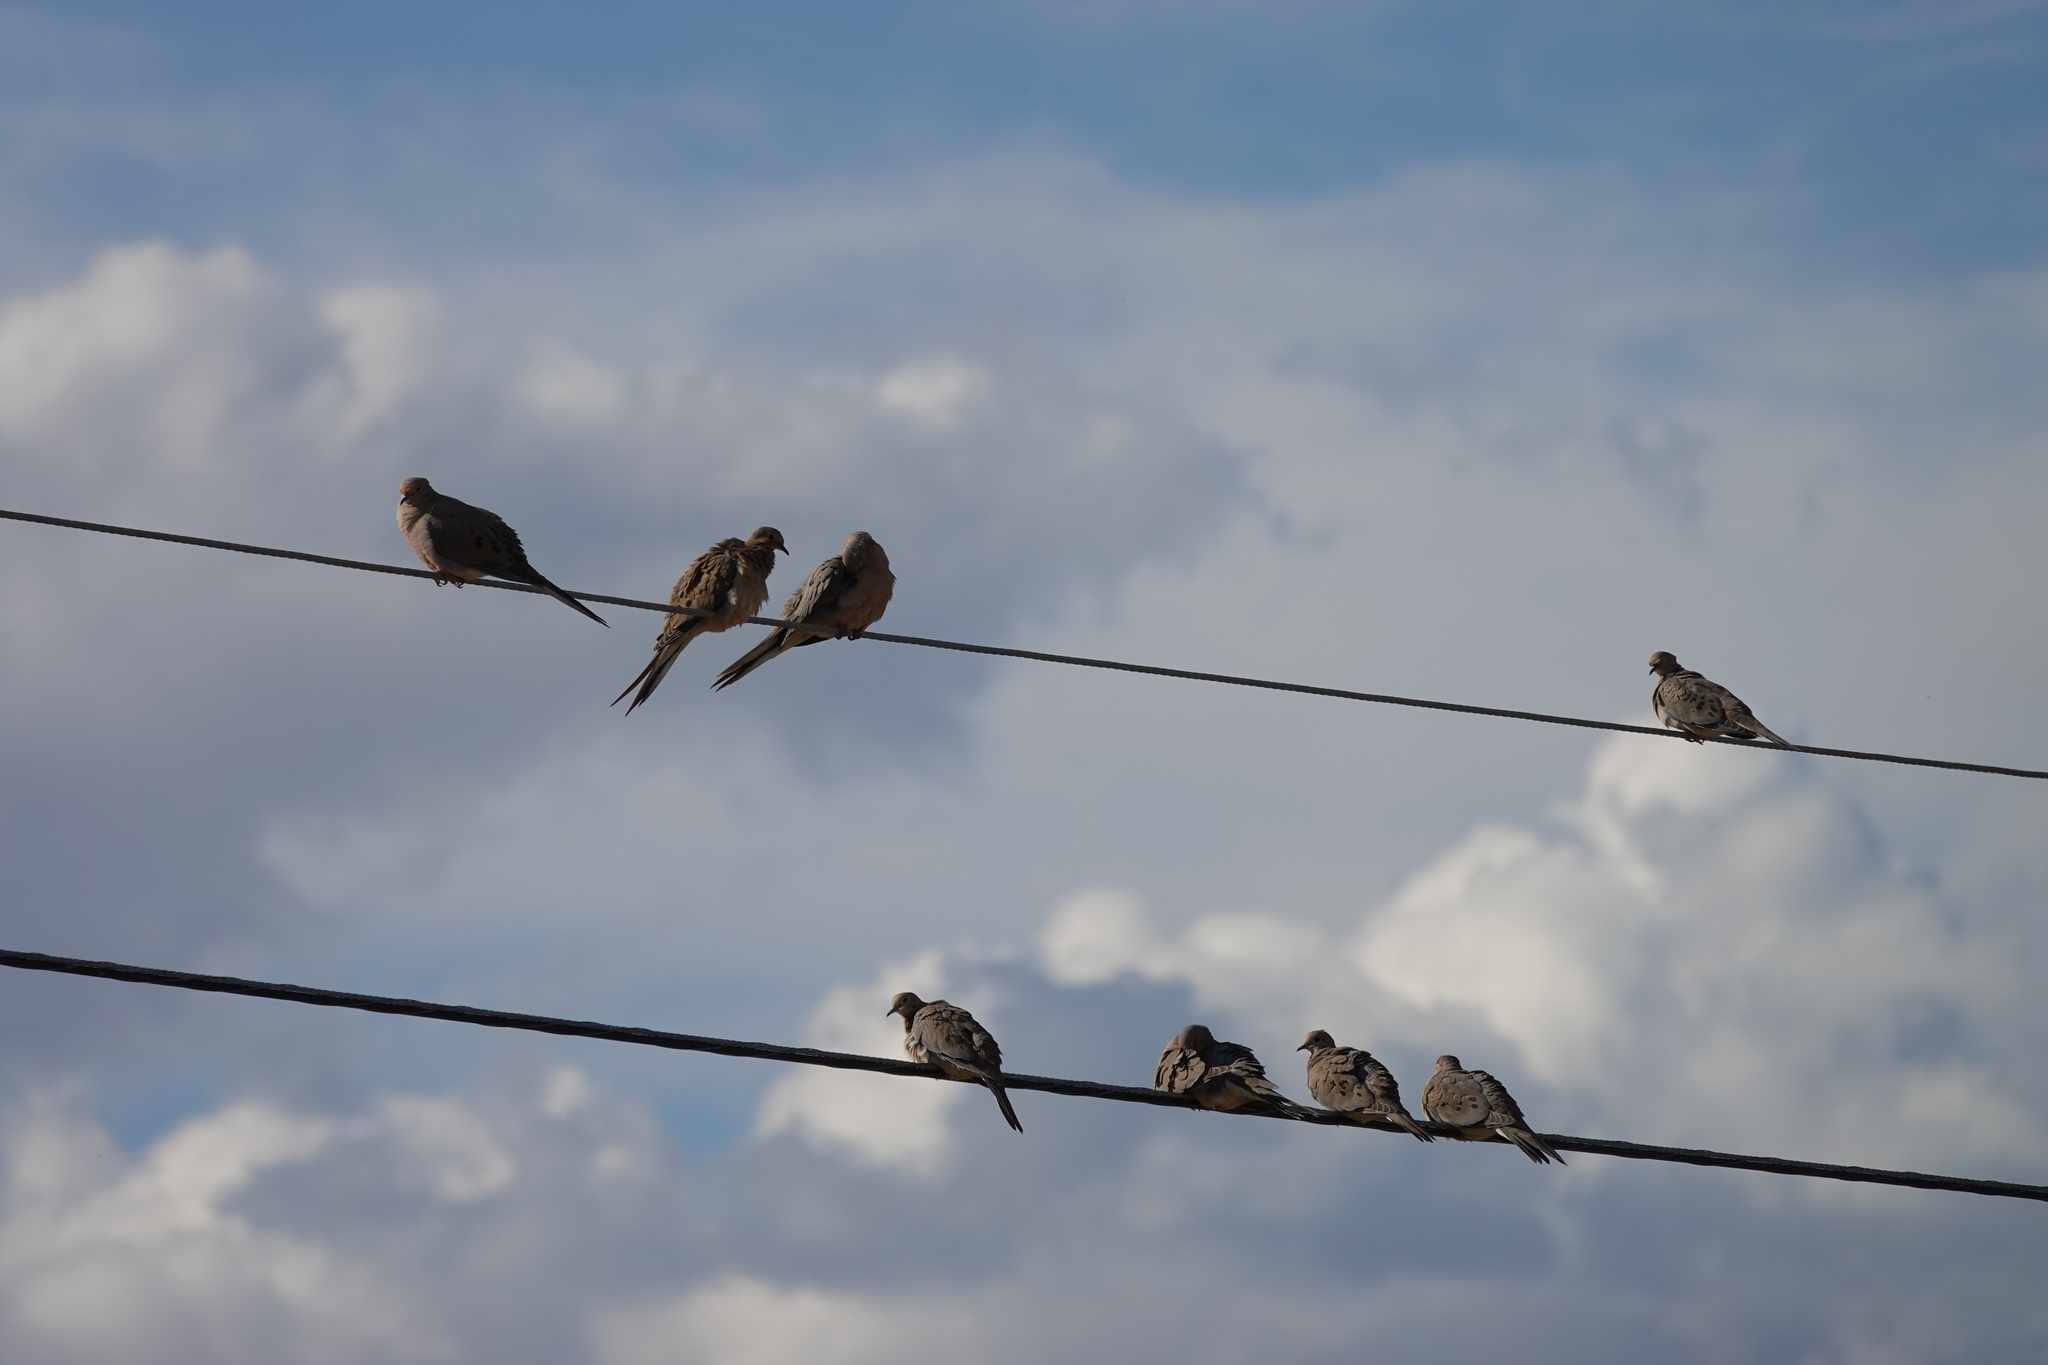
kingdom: Animalia
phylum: Chordata
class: Aves
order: Columbiformes
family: Columbidae
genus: Zenaida
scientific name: Zenaida macroura
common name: Mourning dove
